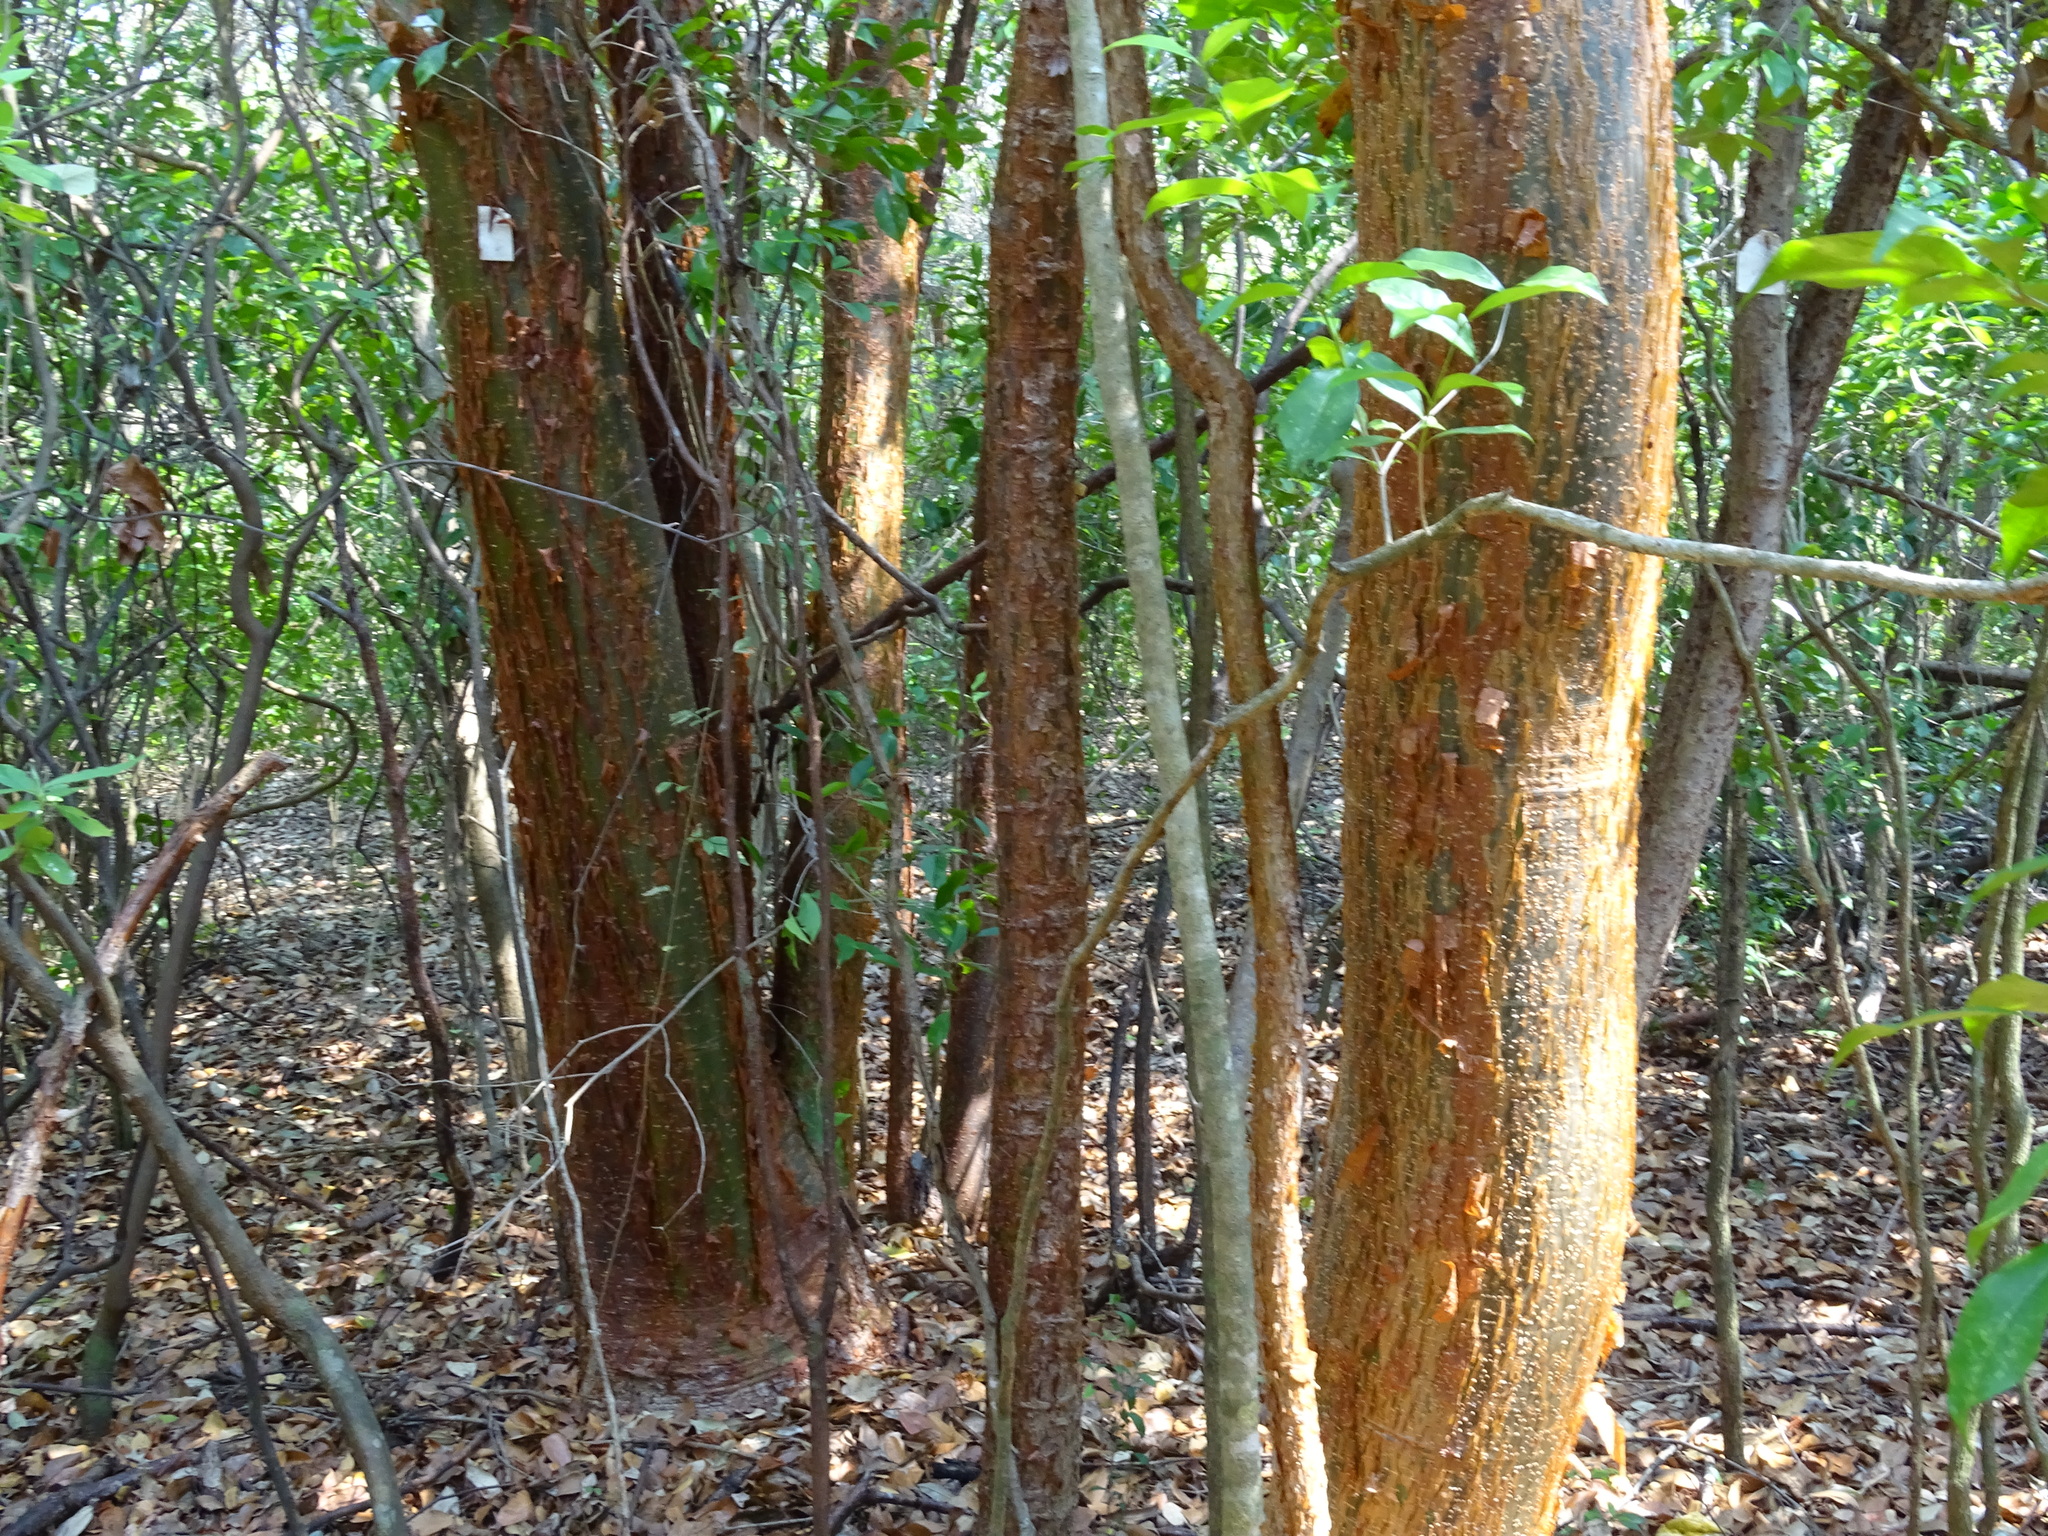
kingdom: Plantae
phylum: Tracheophyta
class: Magnoliopsida
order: Sapindales
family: Burseraceae
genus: Bursera
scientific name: Bursera simaruba
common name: Turpentine tree
